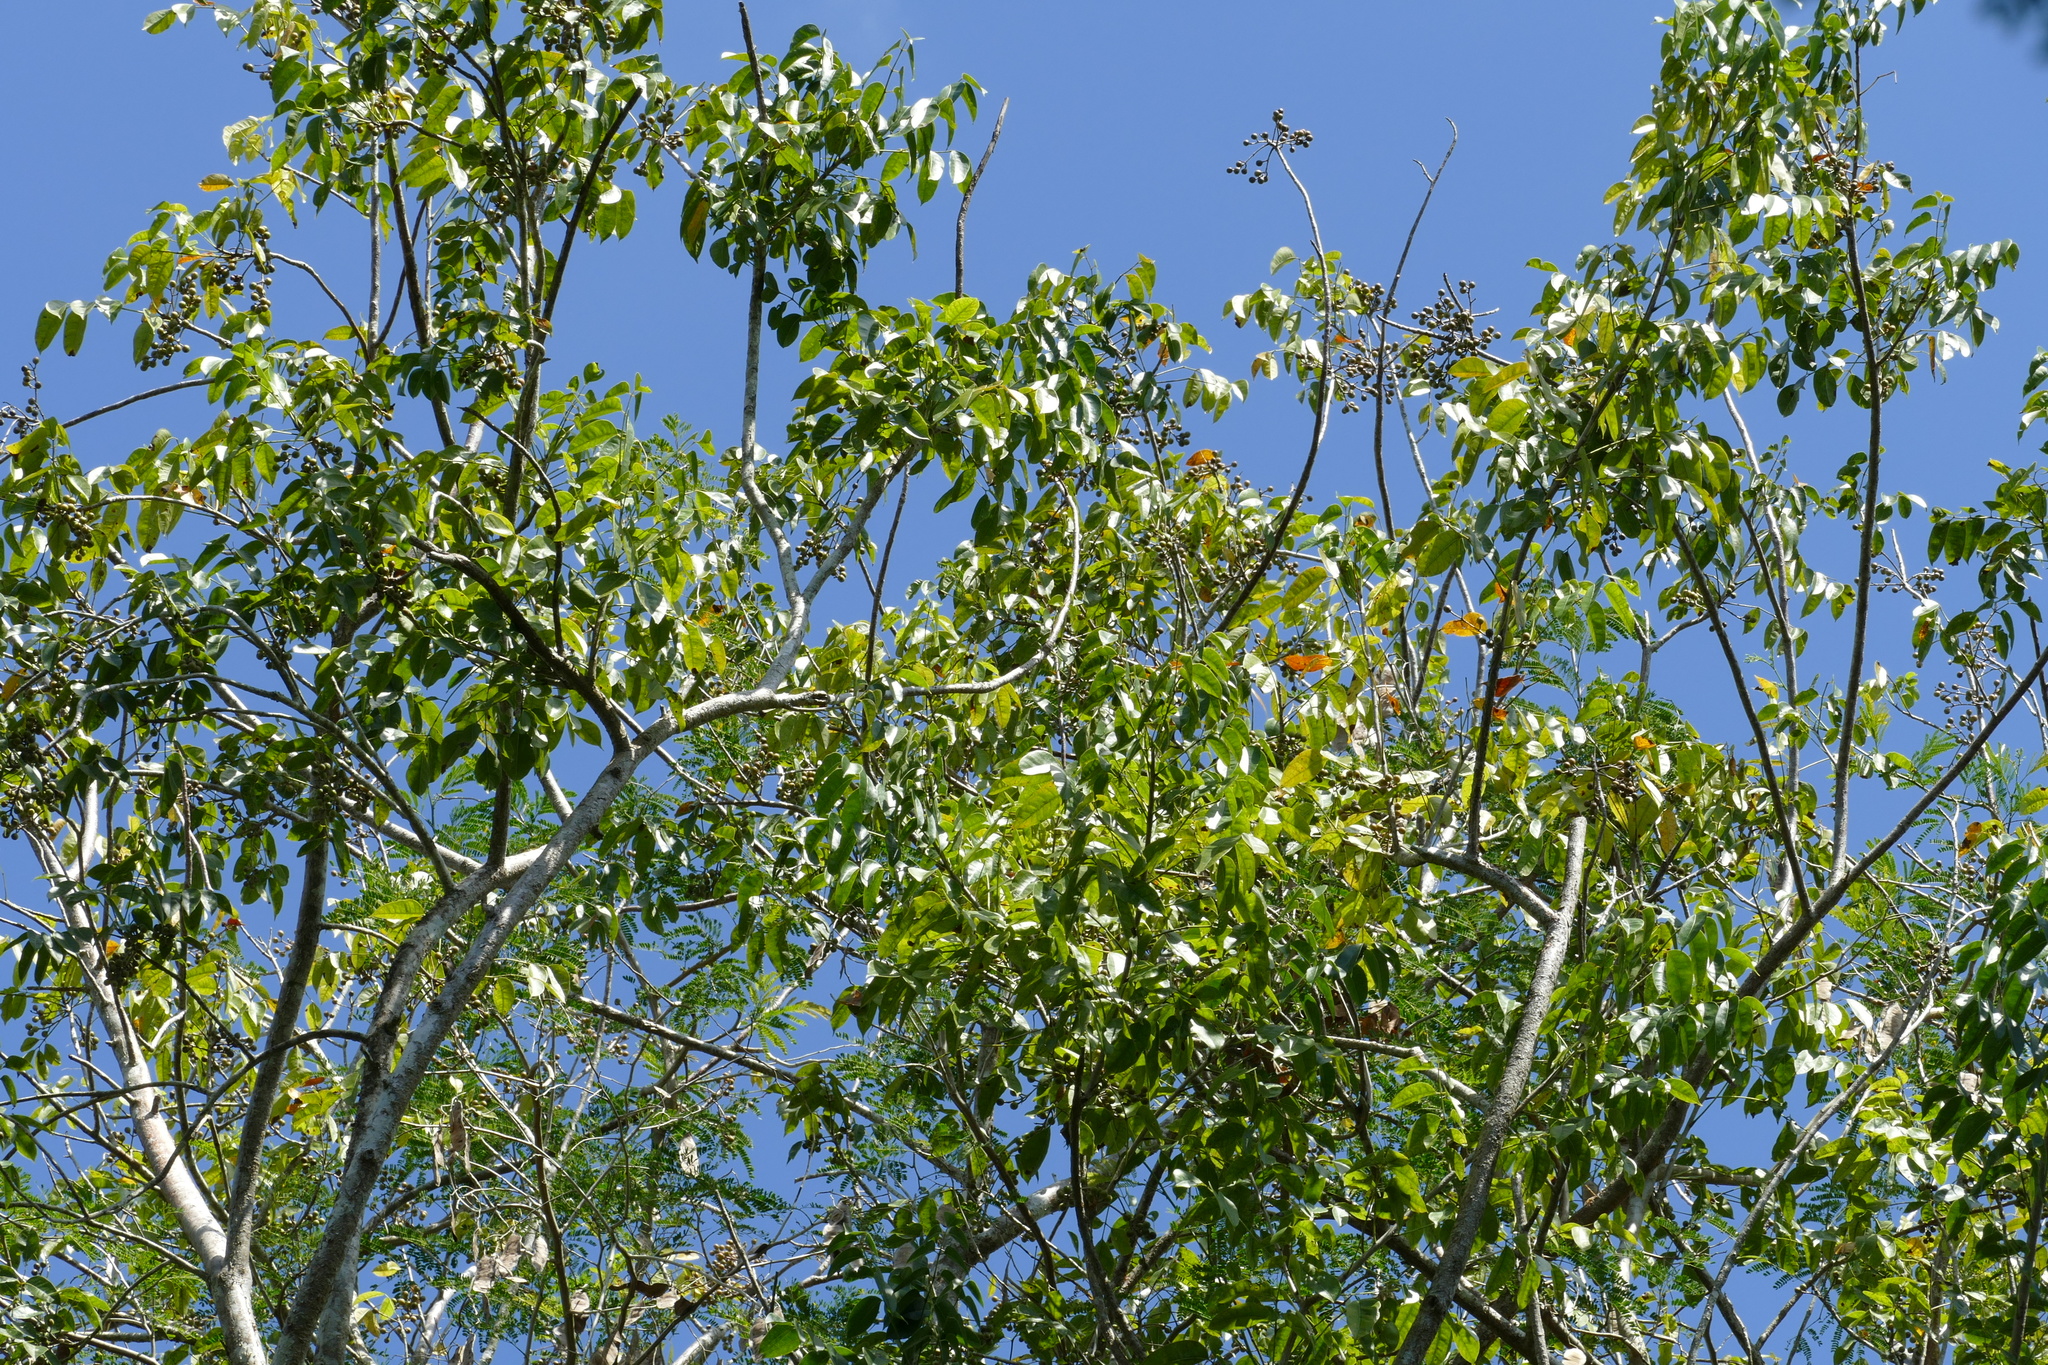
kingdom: Plantae
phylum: Tracheophyta
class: Magnoliopsida
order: Sapindales
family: Burseraceae
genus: Bursera
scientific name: Bursera simaruba
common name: Turpentine tree
